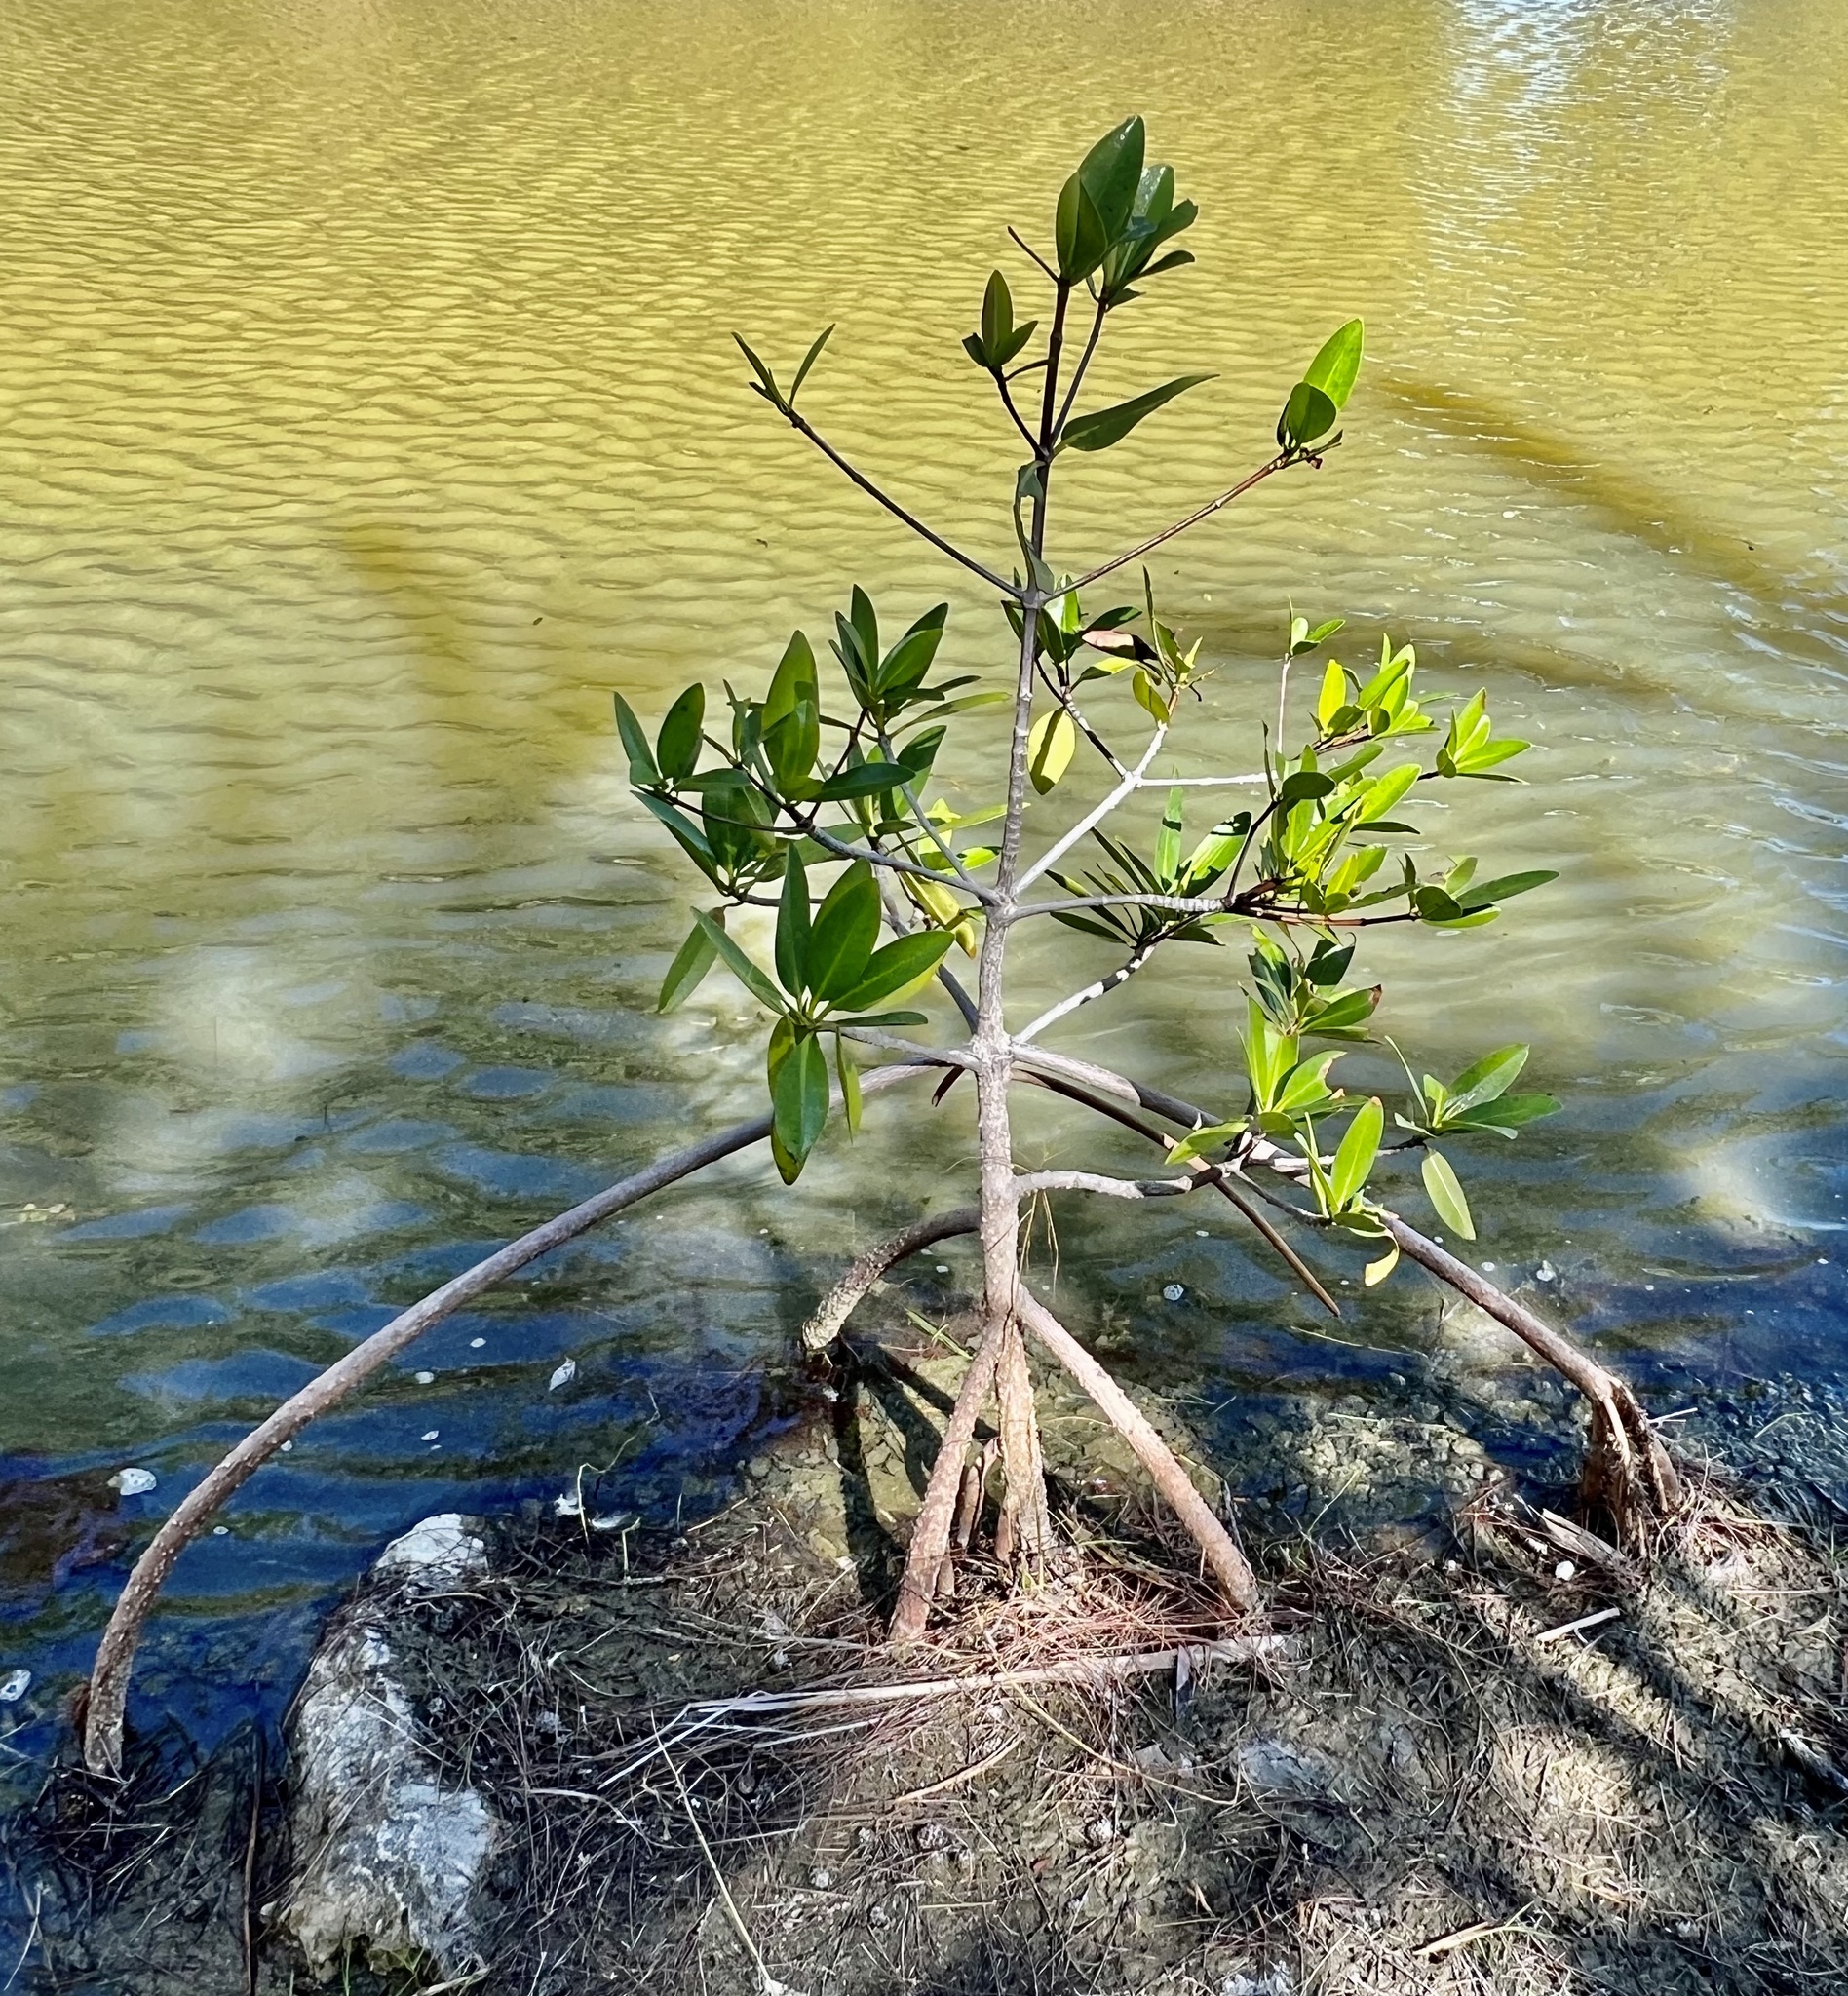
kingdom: Plantae
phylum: Tracheophyta
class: Magnoliopsida
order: Malpighiales
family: Rhizophoraceae
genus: Rhizophora
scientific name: Rhizophora mangle
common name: Red mangrove
